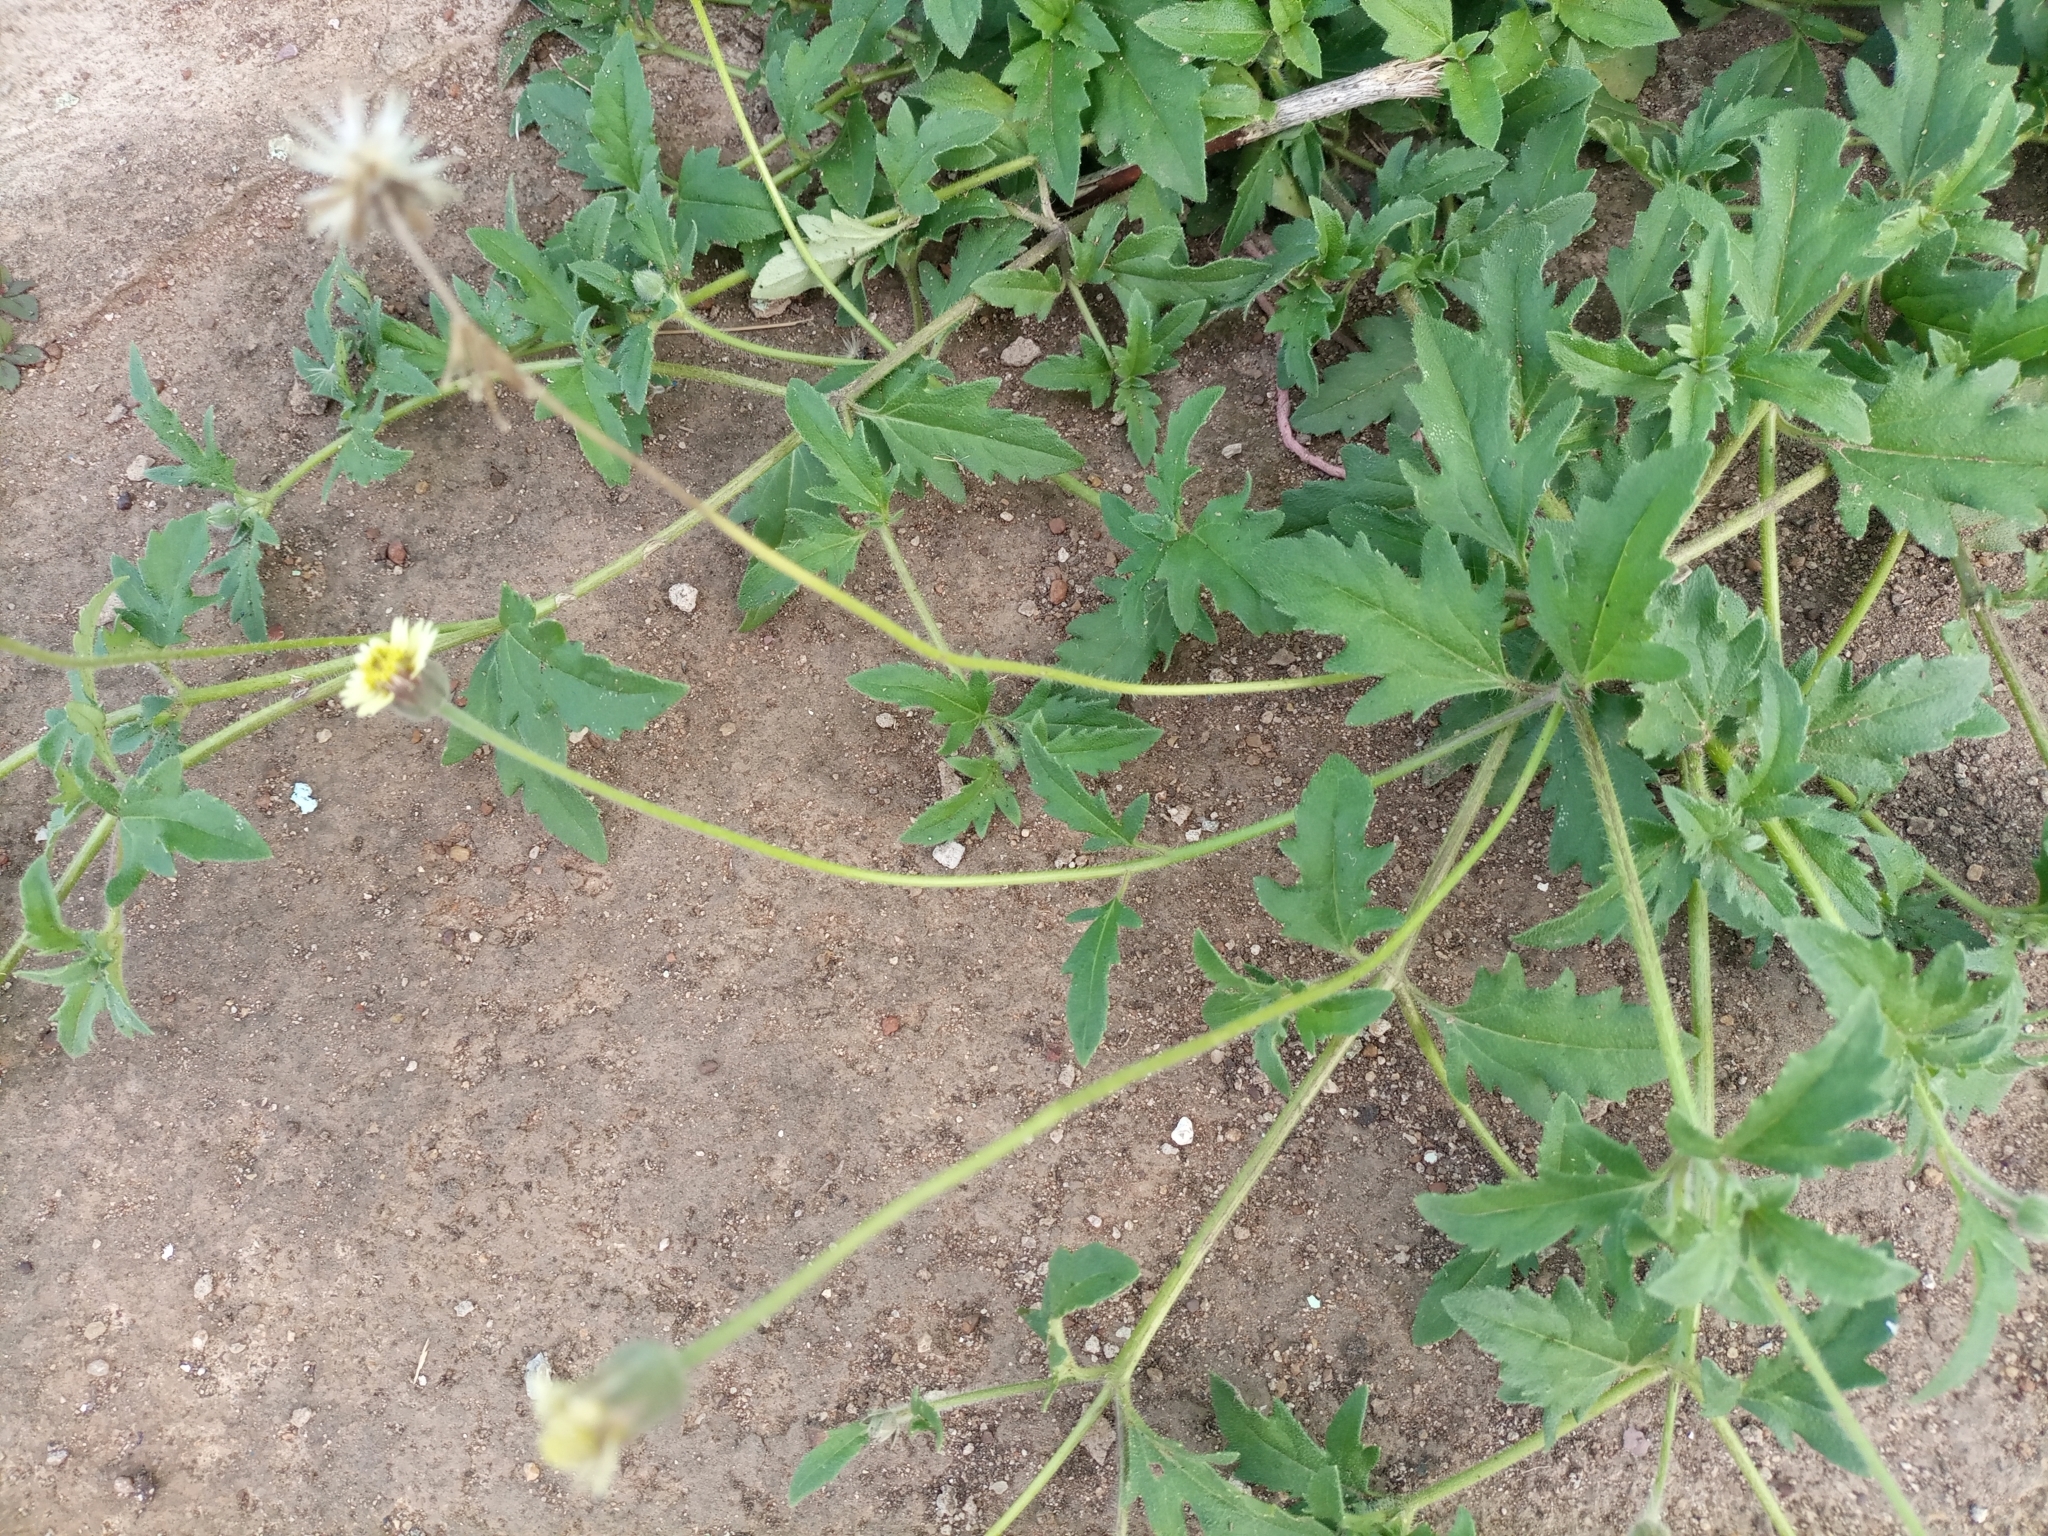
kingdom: Plantae
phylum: Tracheophyta
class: Magnoliopsida
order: Asterales
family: Asteraceae
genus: Tridax
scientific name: Tridax procumbens
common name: Coatbuttons
